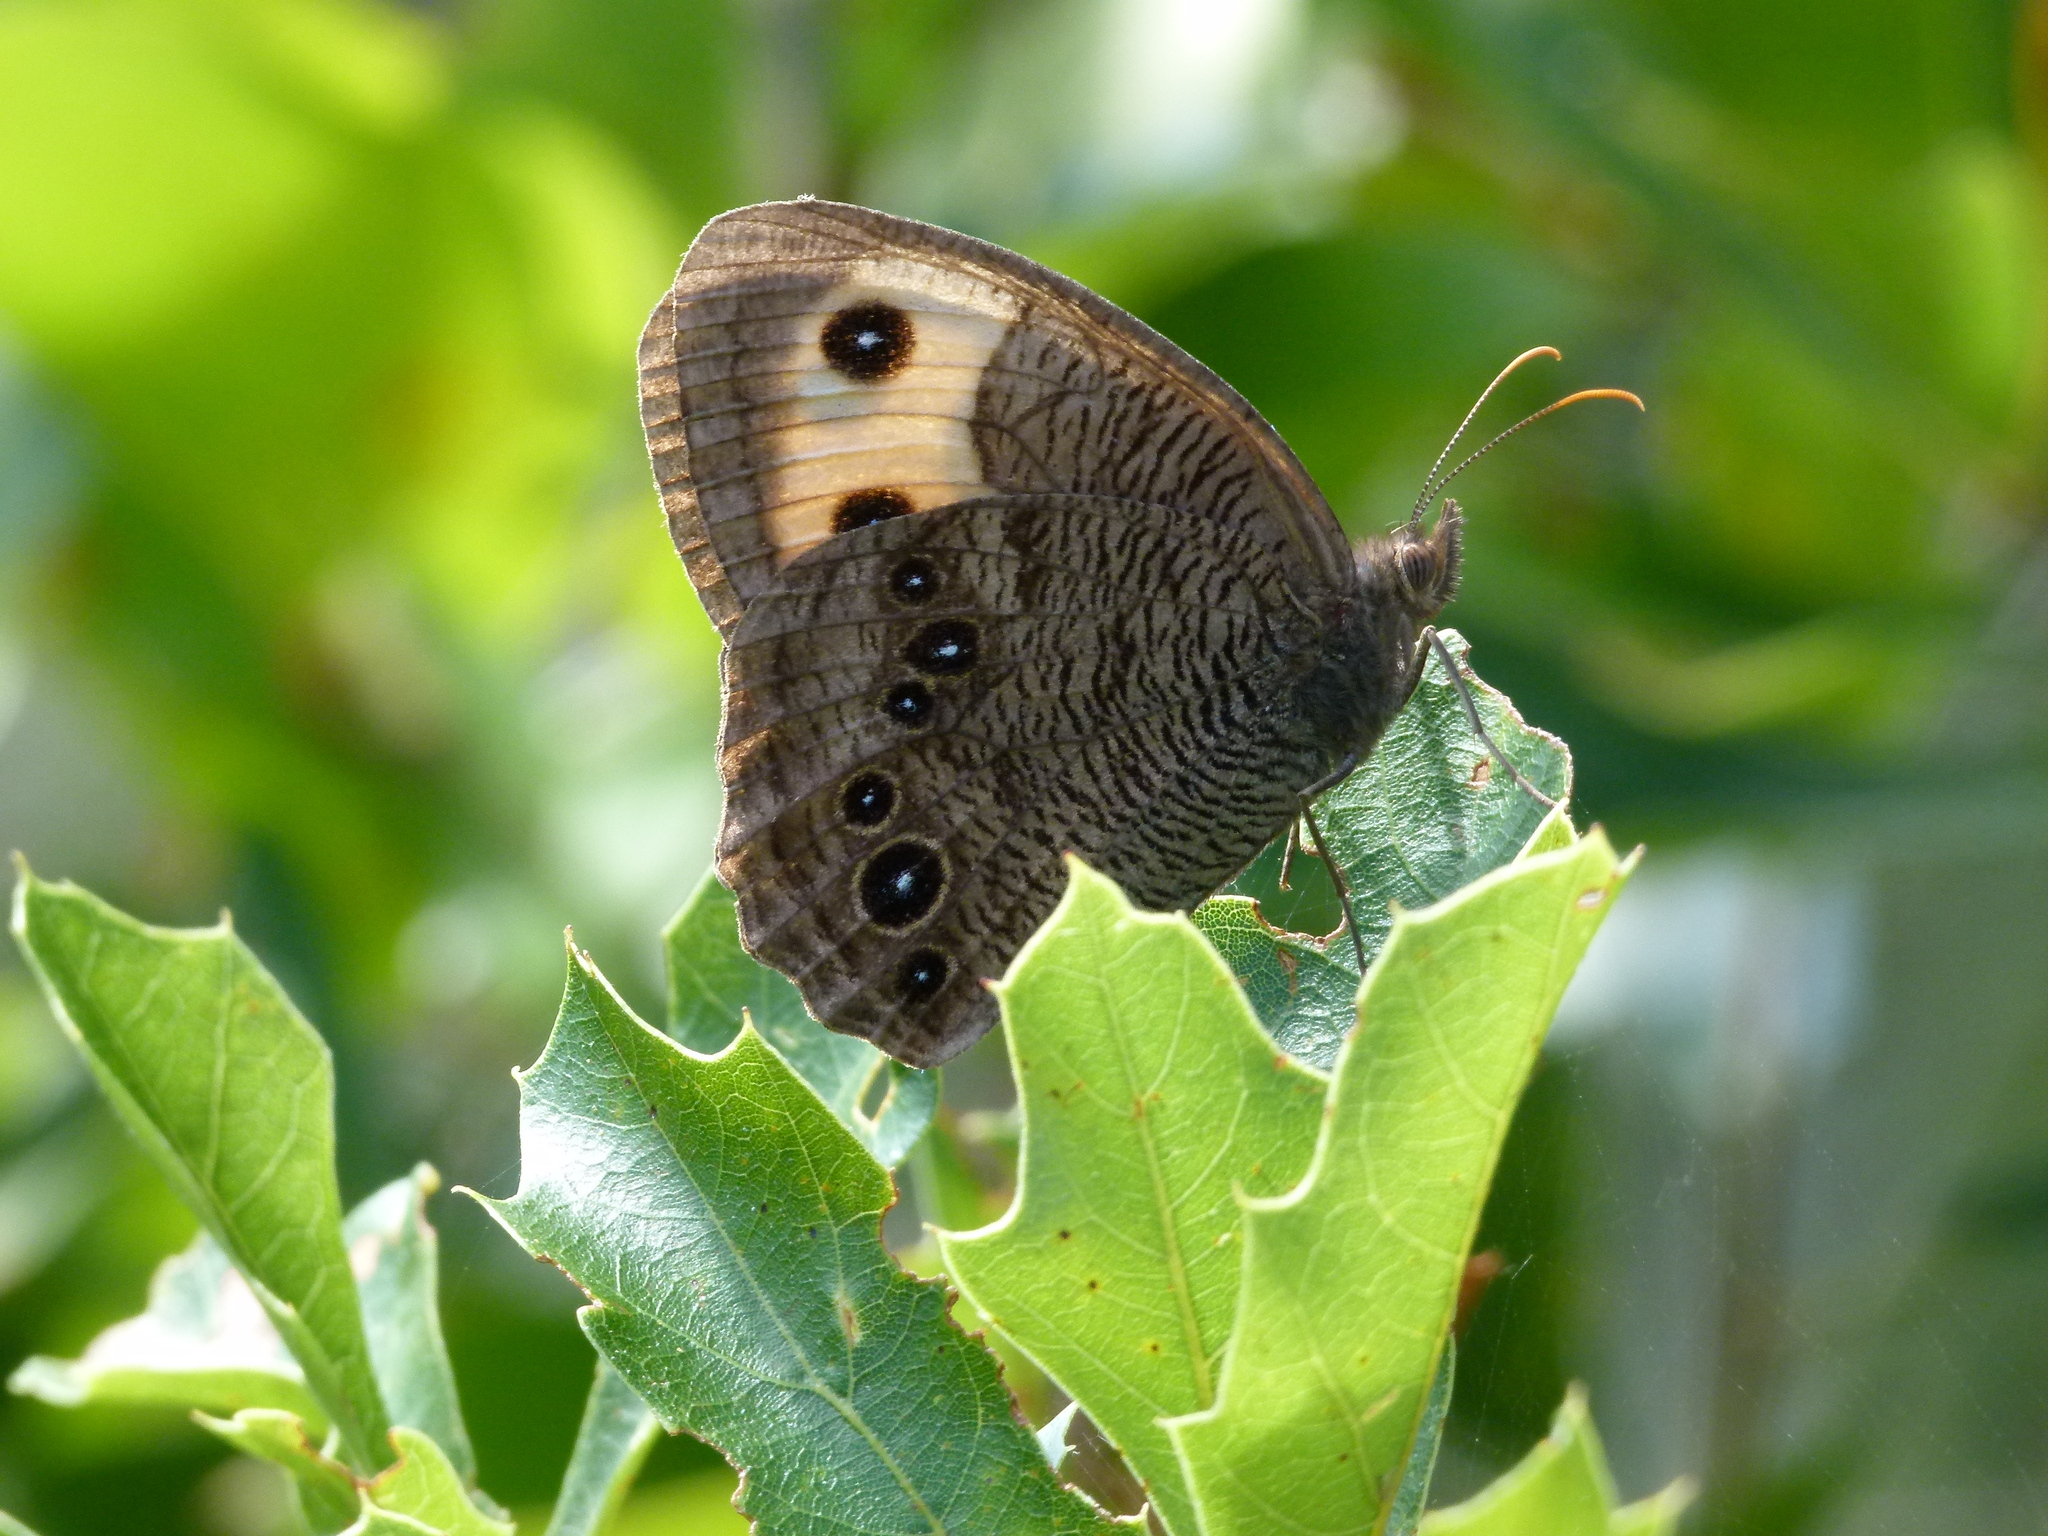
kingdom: Animalia
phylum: Arthropoda
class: Insecta
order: Lepidoptera
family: Nymphalidae
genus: Cercyonis
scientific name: Cercyonis pegala
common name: Common wood-nymph
